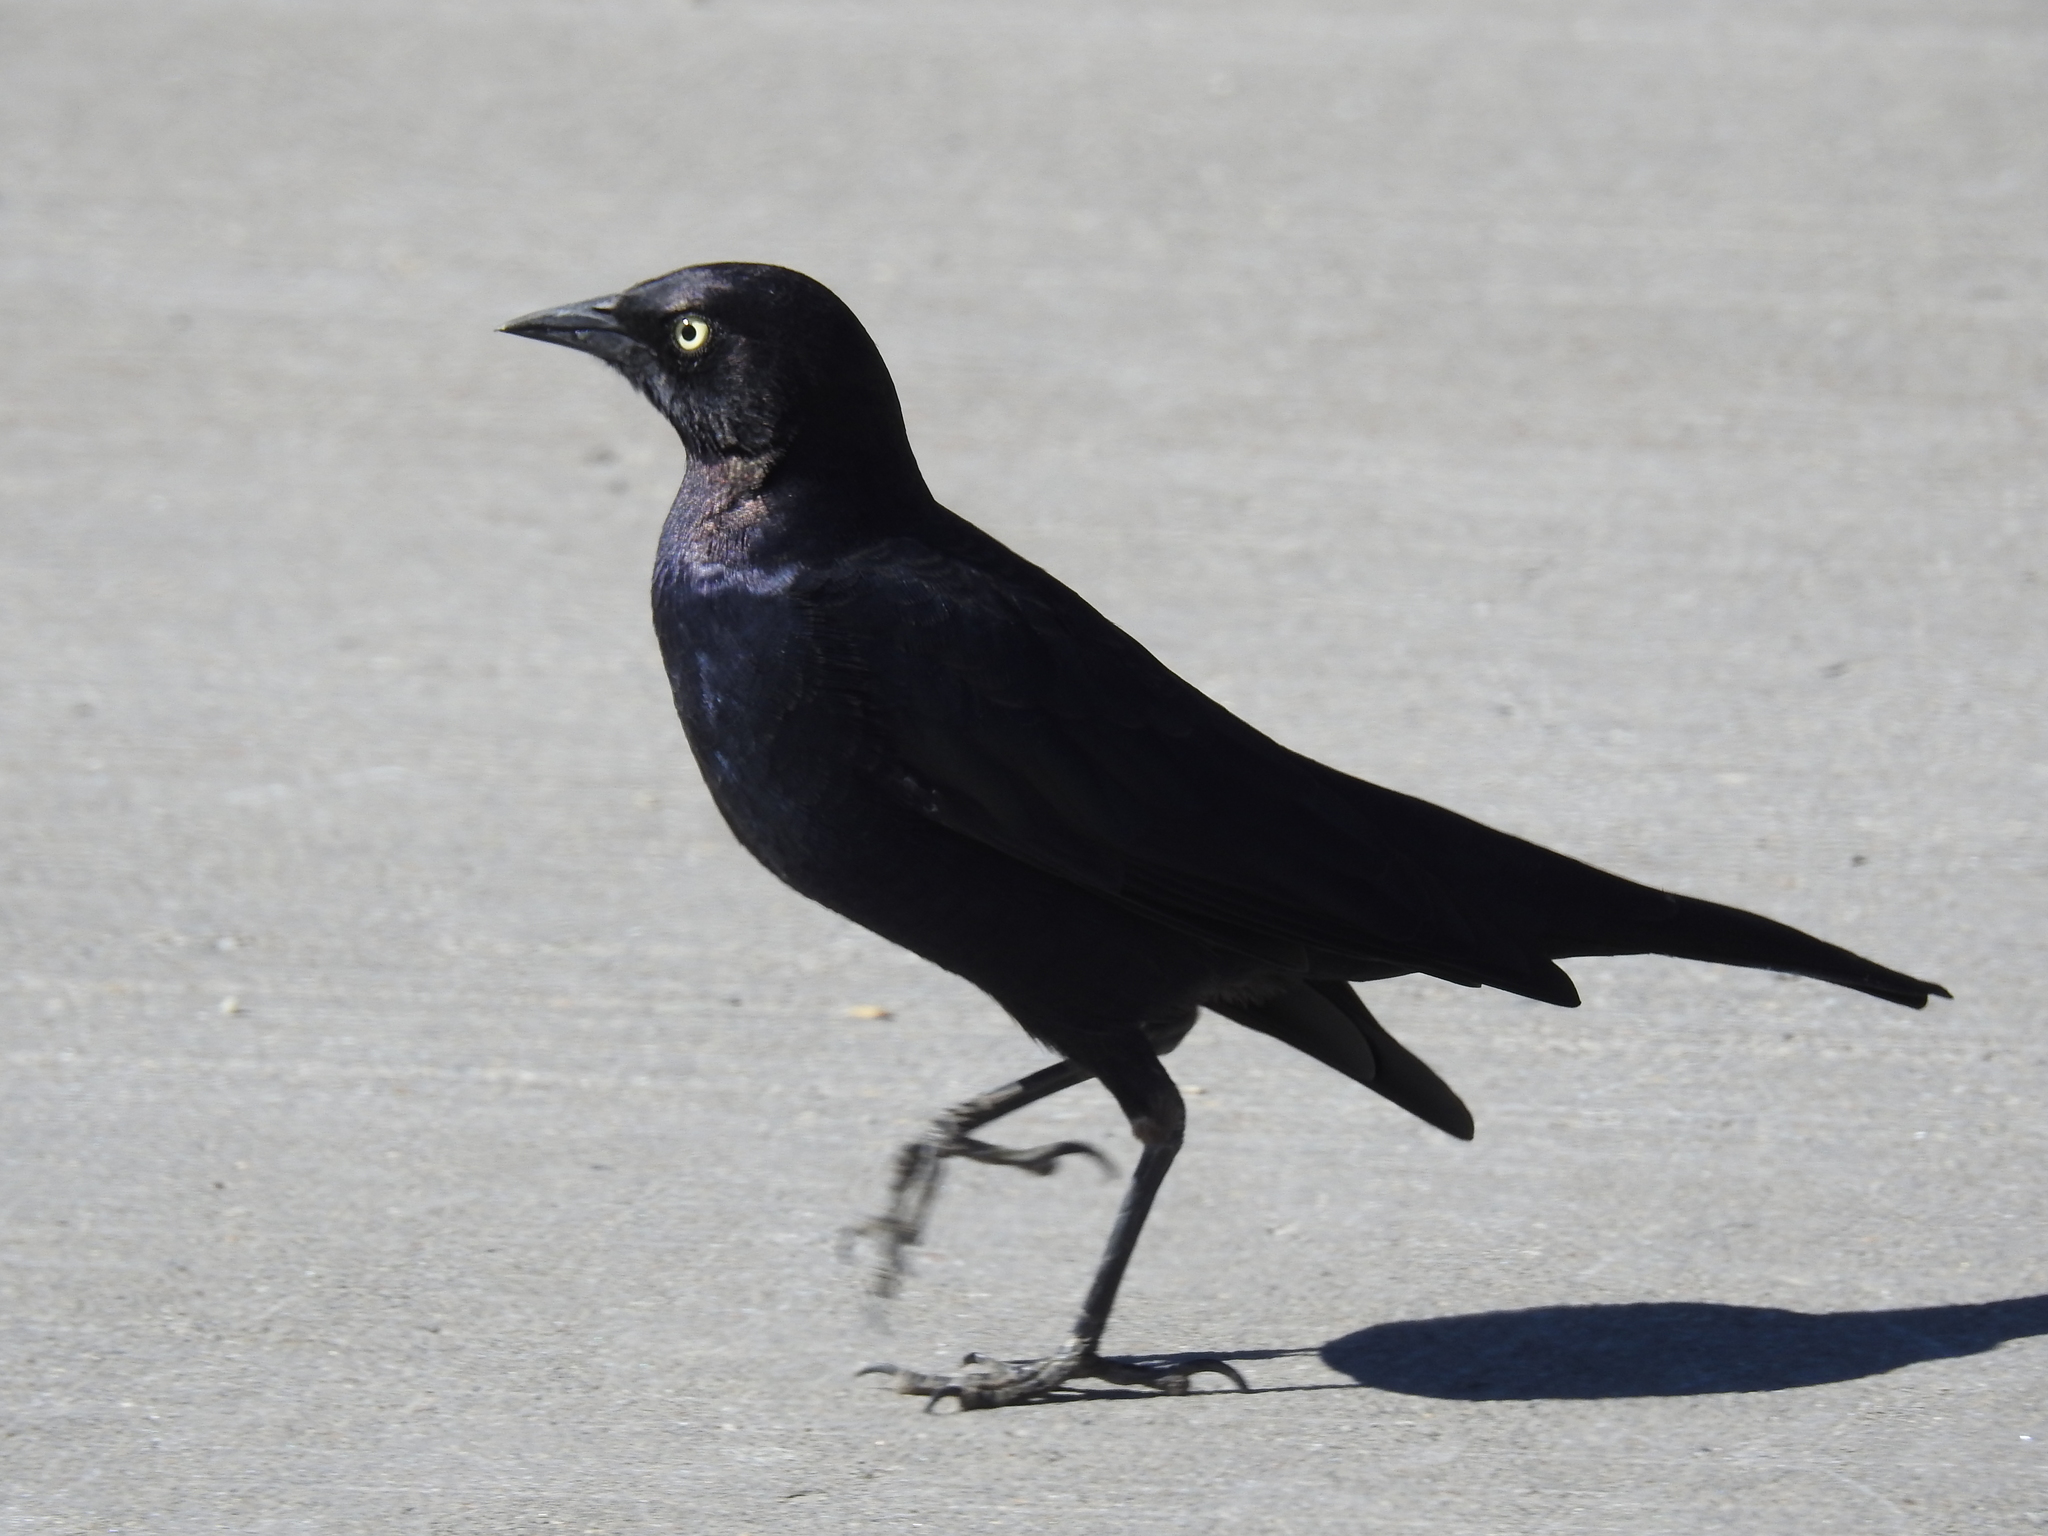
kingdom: Animalia
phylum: Chordata
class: Aves
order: Passeriformes
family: Icteridae
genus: Euphagus
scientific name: Euphagus cyanocephalus
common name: Brewer's blackbird
